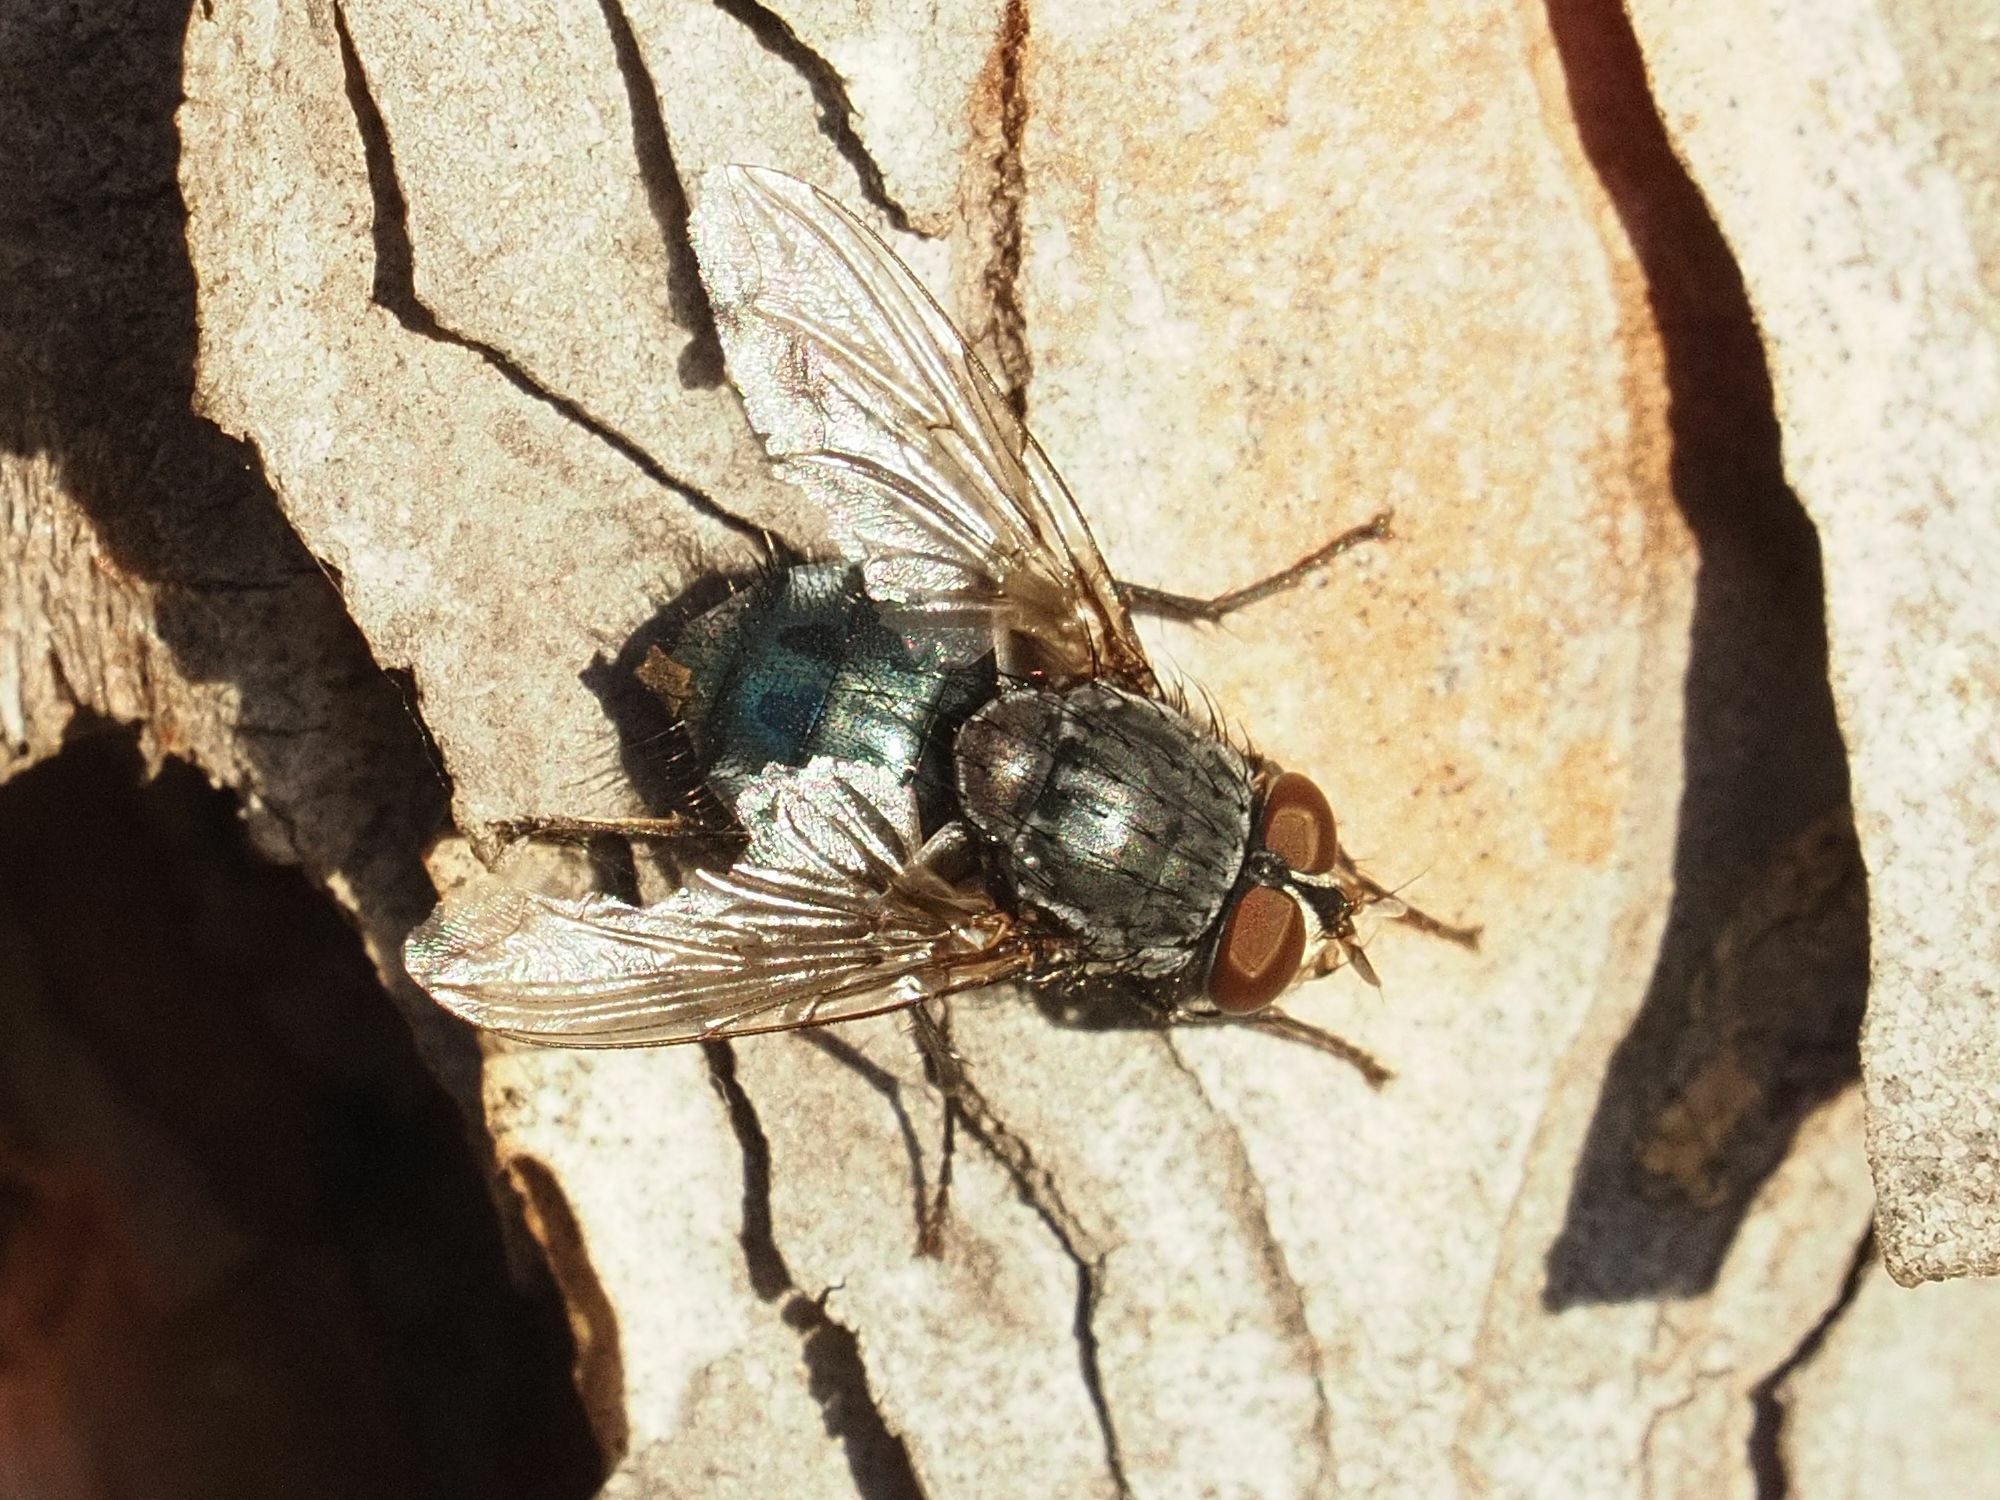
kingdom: Animalia
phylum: Arthropoda
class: Insecta
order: Diptera
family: Calliphoridae
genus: Calliphora
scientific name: Calliphora vicina
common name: Common blow flie
